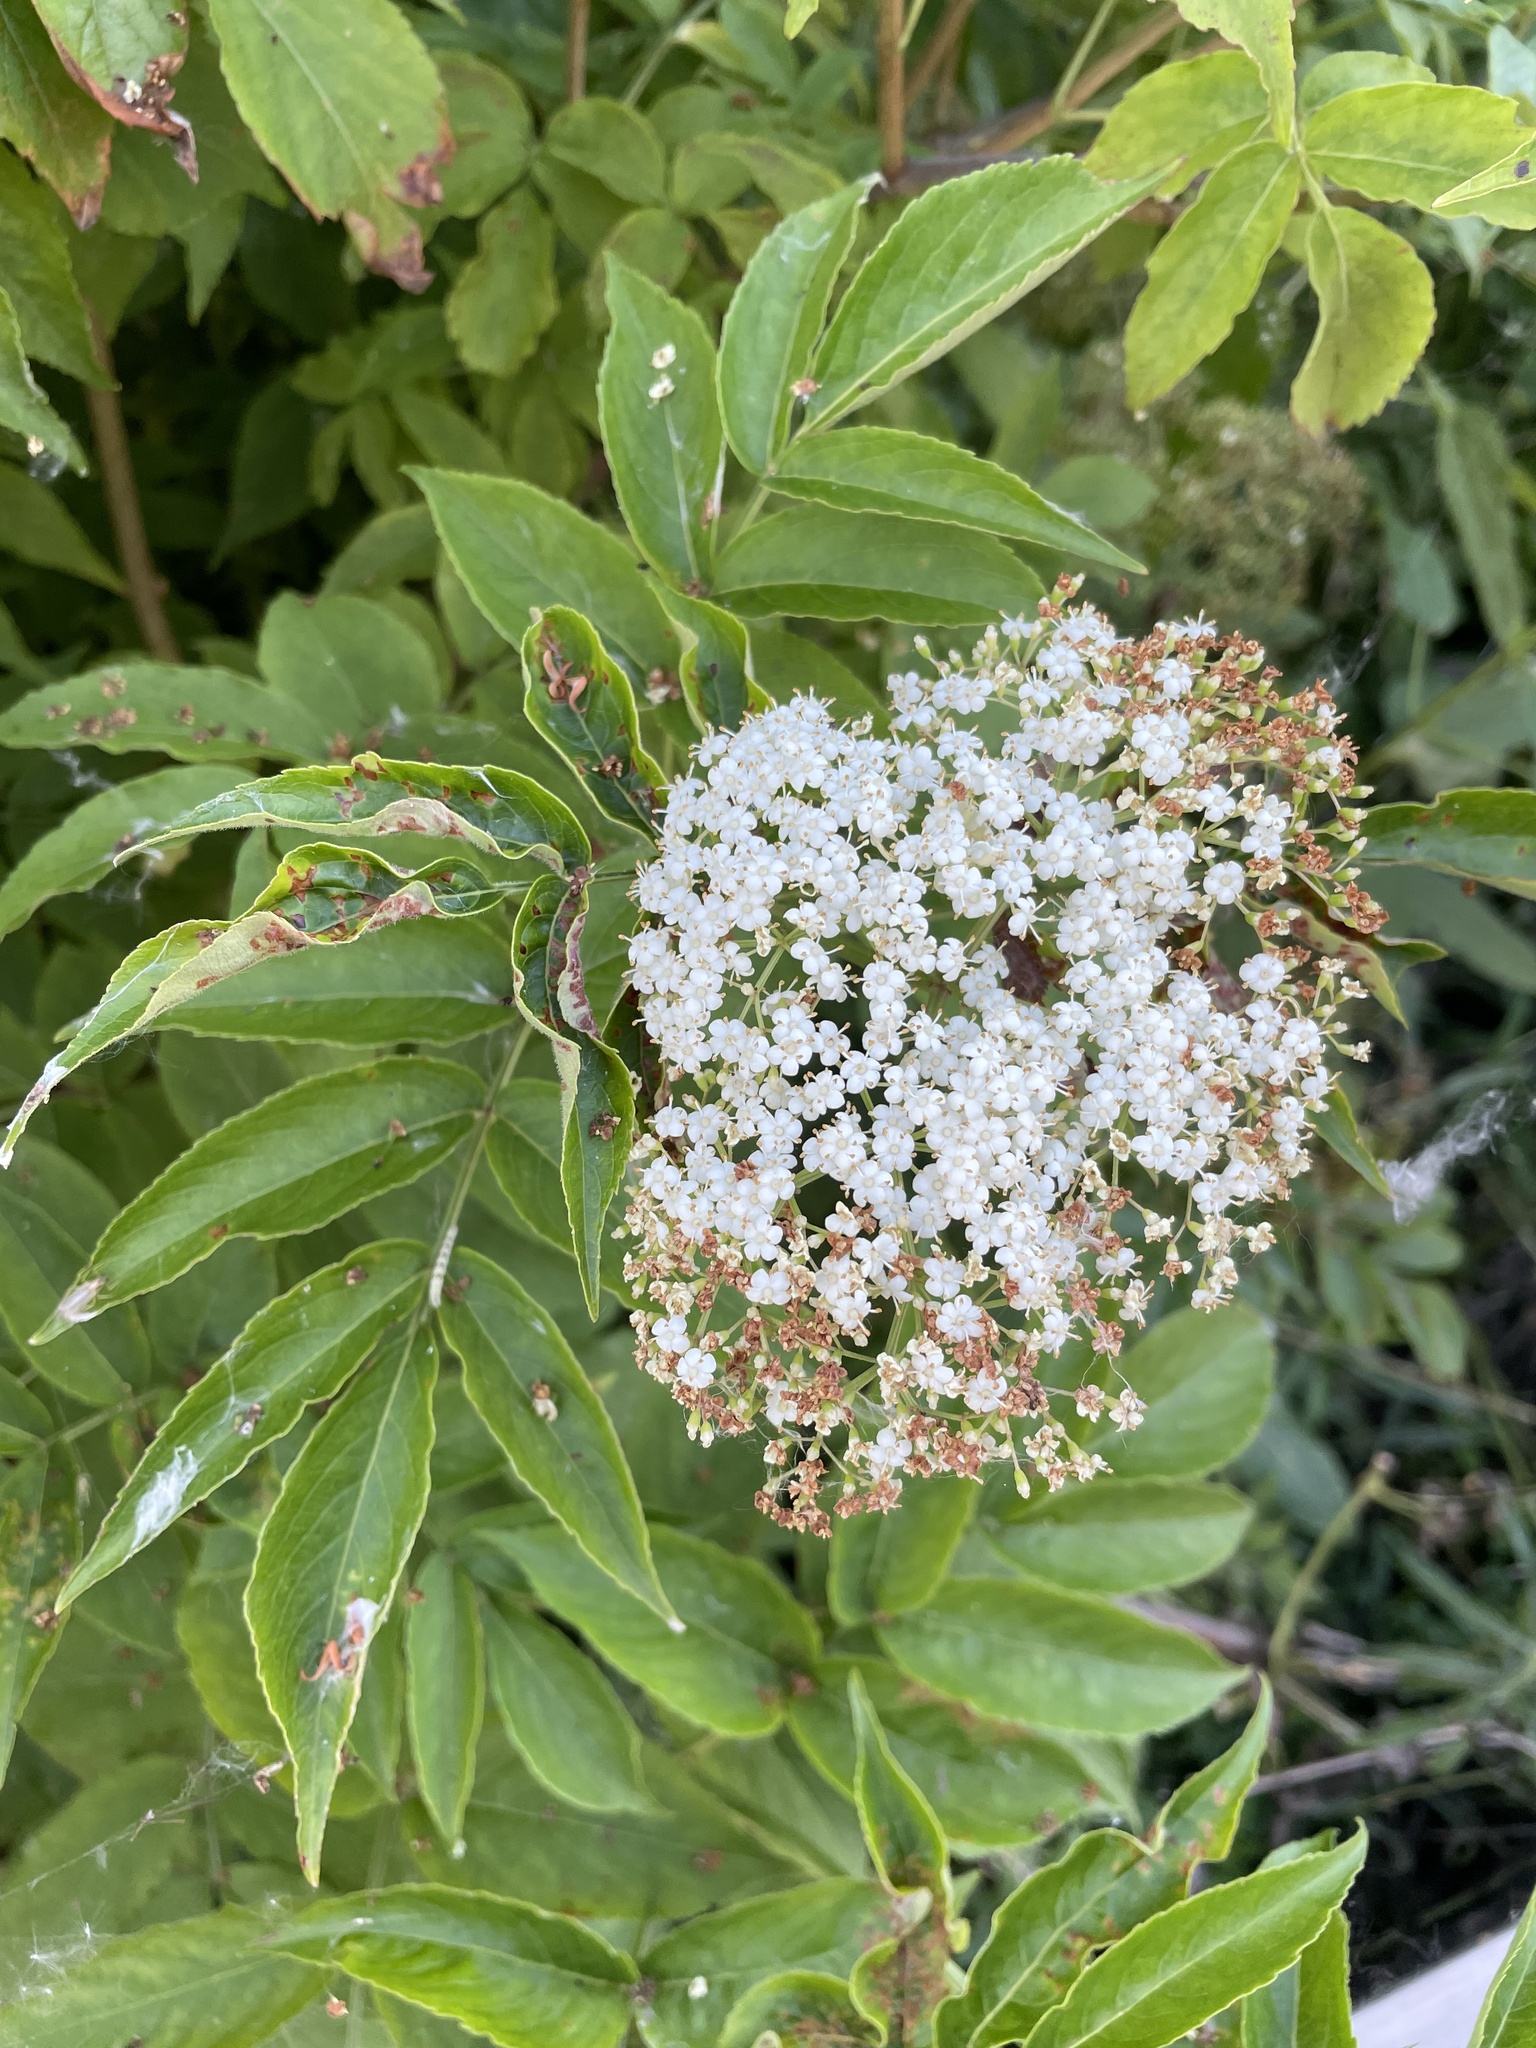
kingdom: Plantae
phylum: Tracheophyta
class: Magnoliopsida
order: Dipsacales
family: Viburnaceae
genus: Sambucus
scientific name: Sambucus canadensis
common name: American elder
